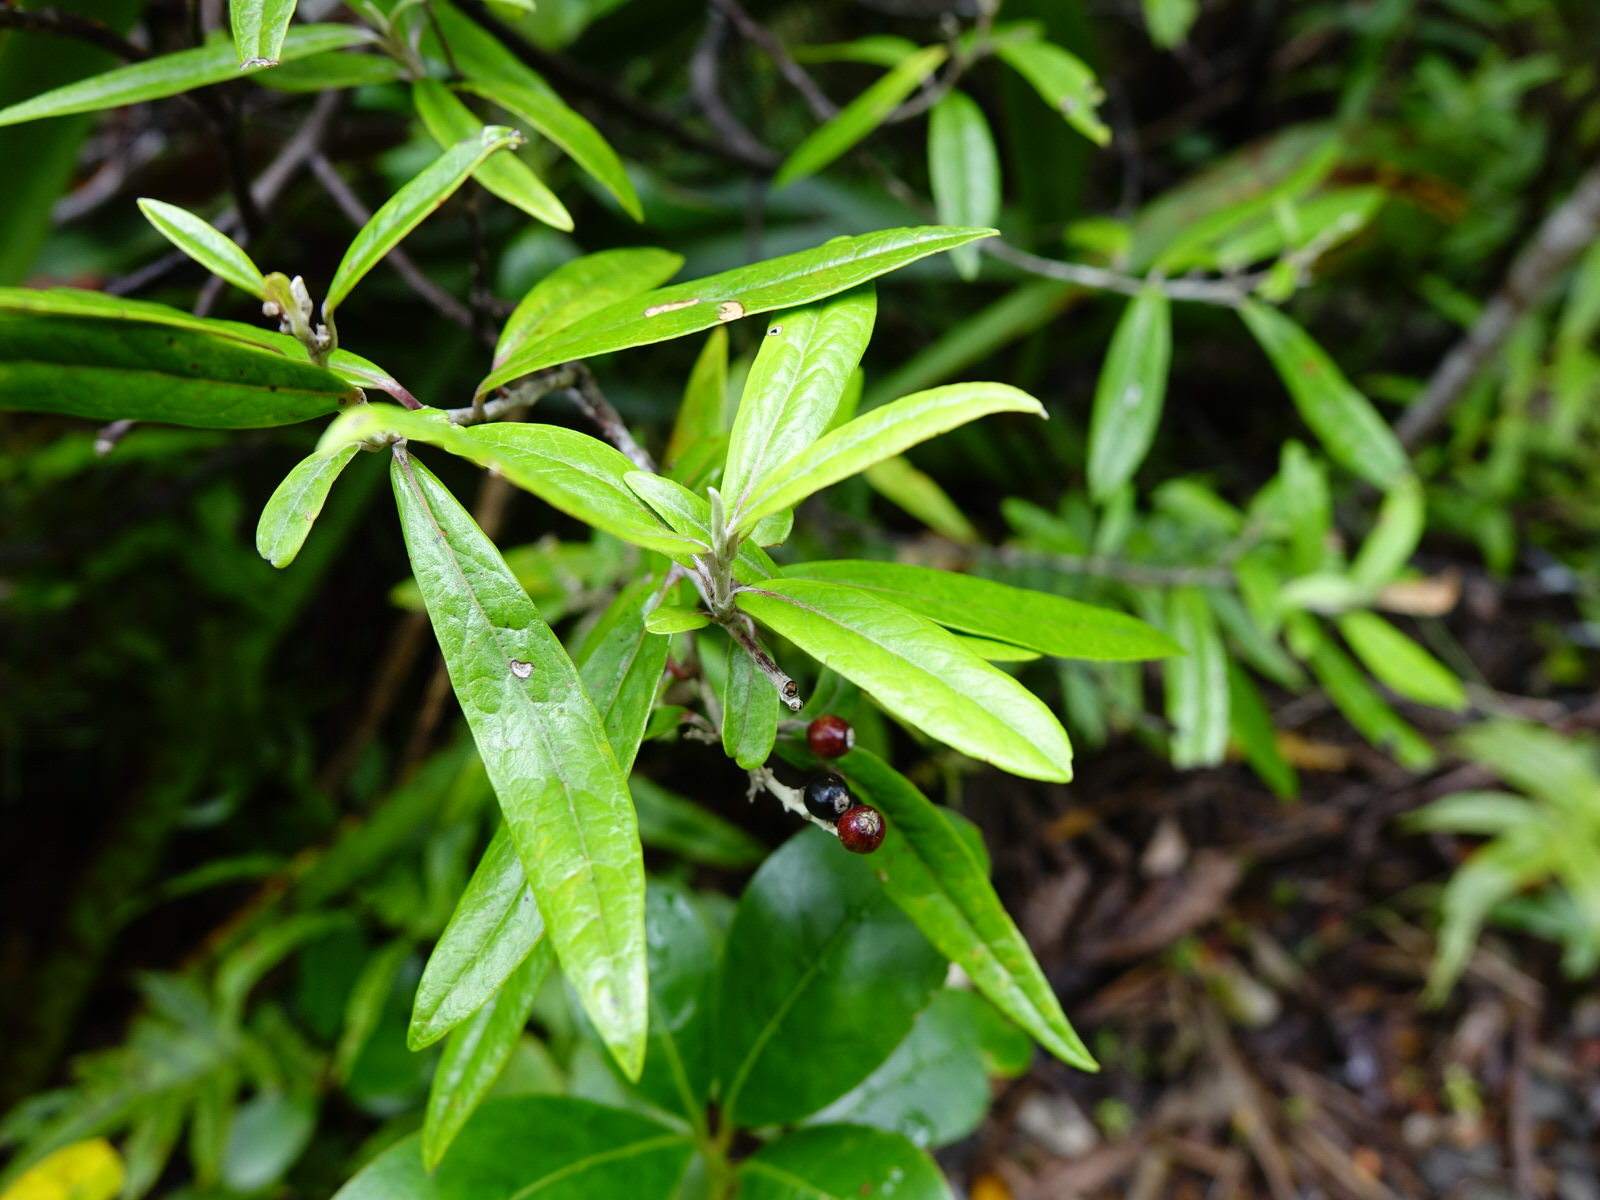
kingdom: Plantae
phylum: Tracheophyta
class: Magnoliopsida
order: Asterales
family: Argophyllaceae
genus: Corokia
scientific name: Corokia buddleioides
